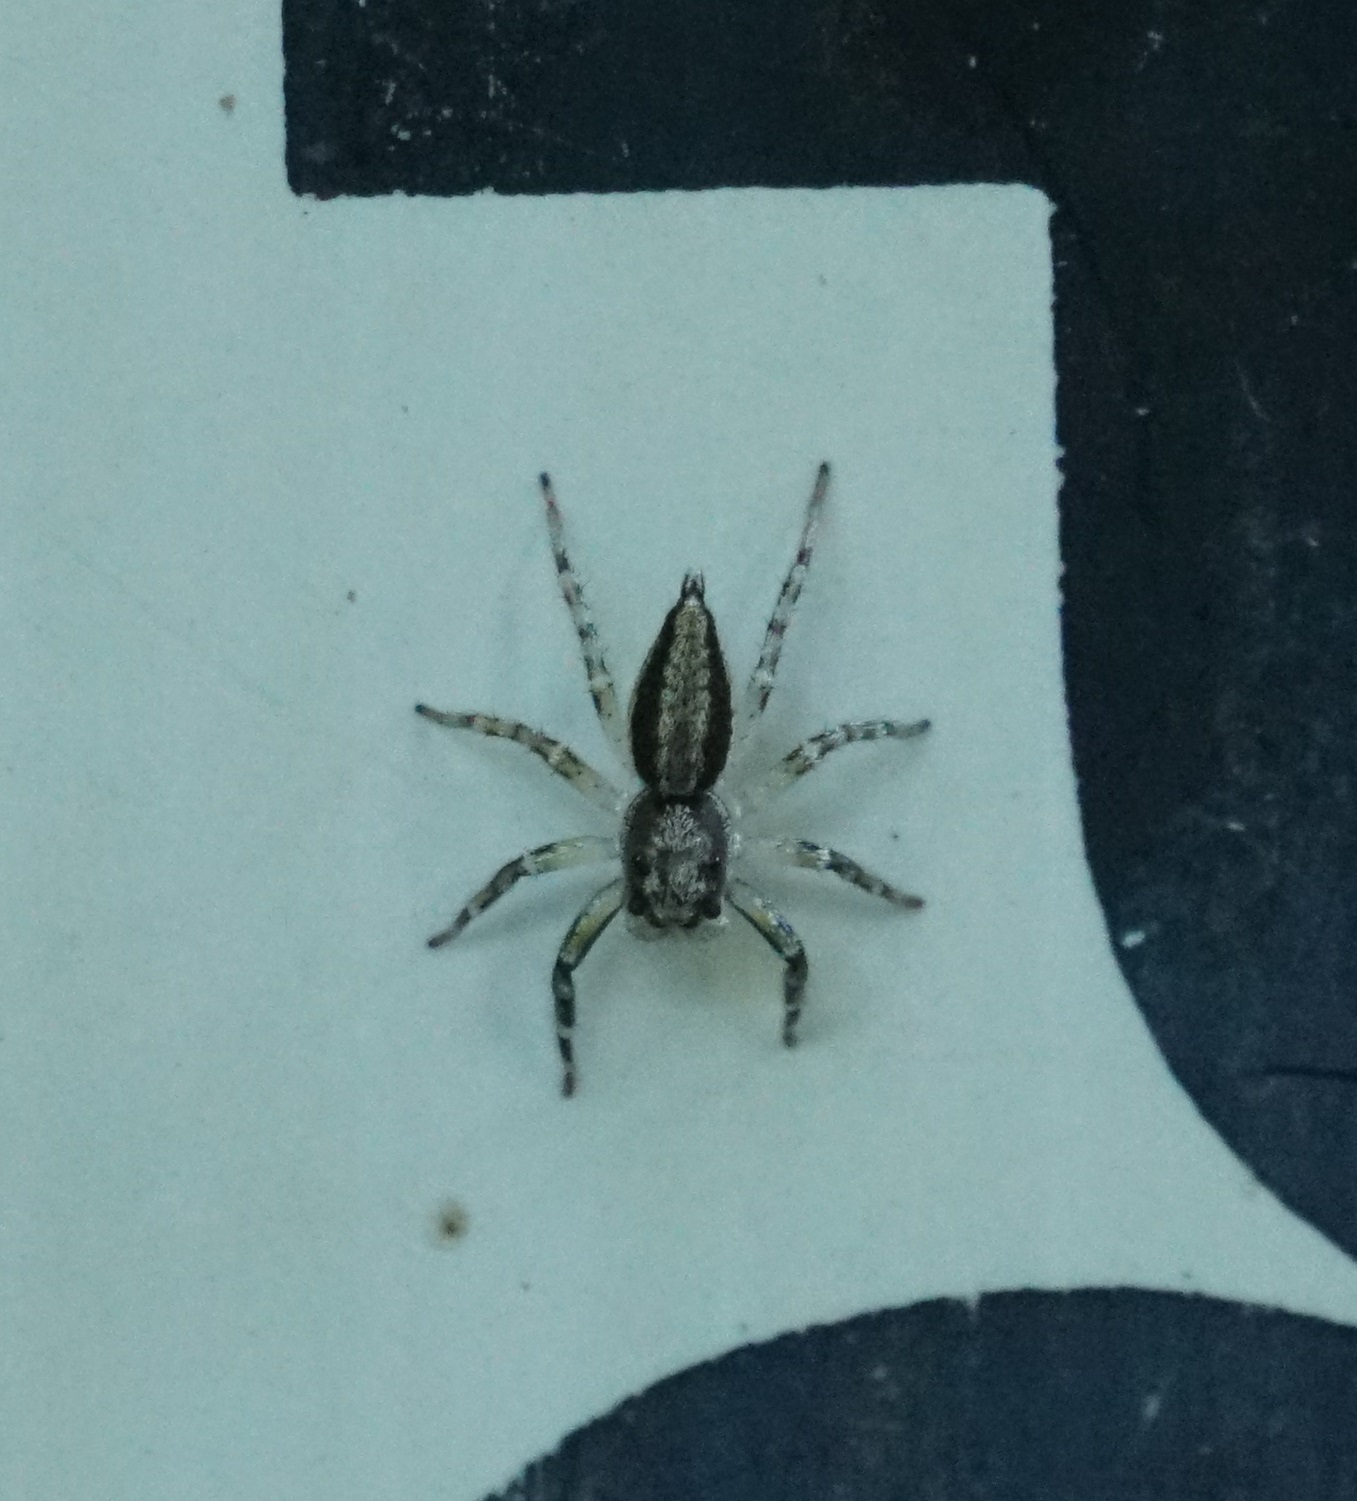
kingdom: Animalia
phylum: Arthropoda
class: Arachnida
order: Araneae
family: Salticidae
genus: Zenodorus
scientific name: Zenodorus swiftorum
